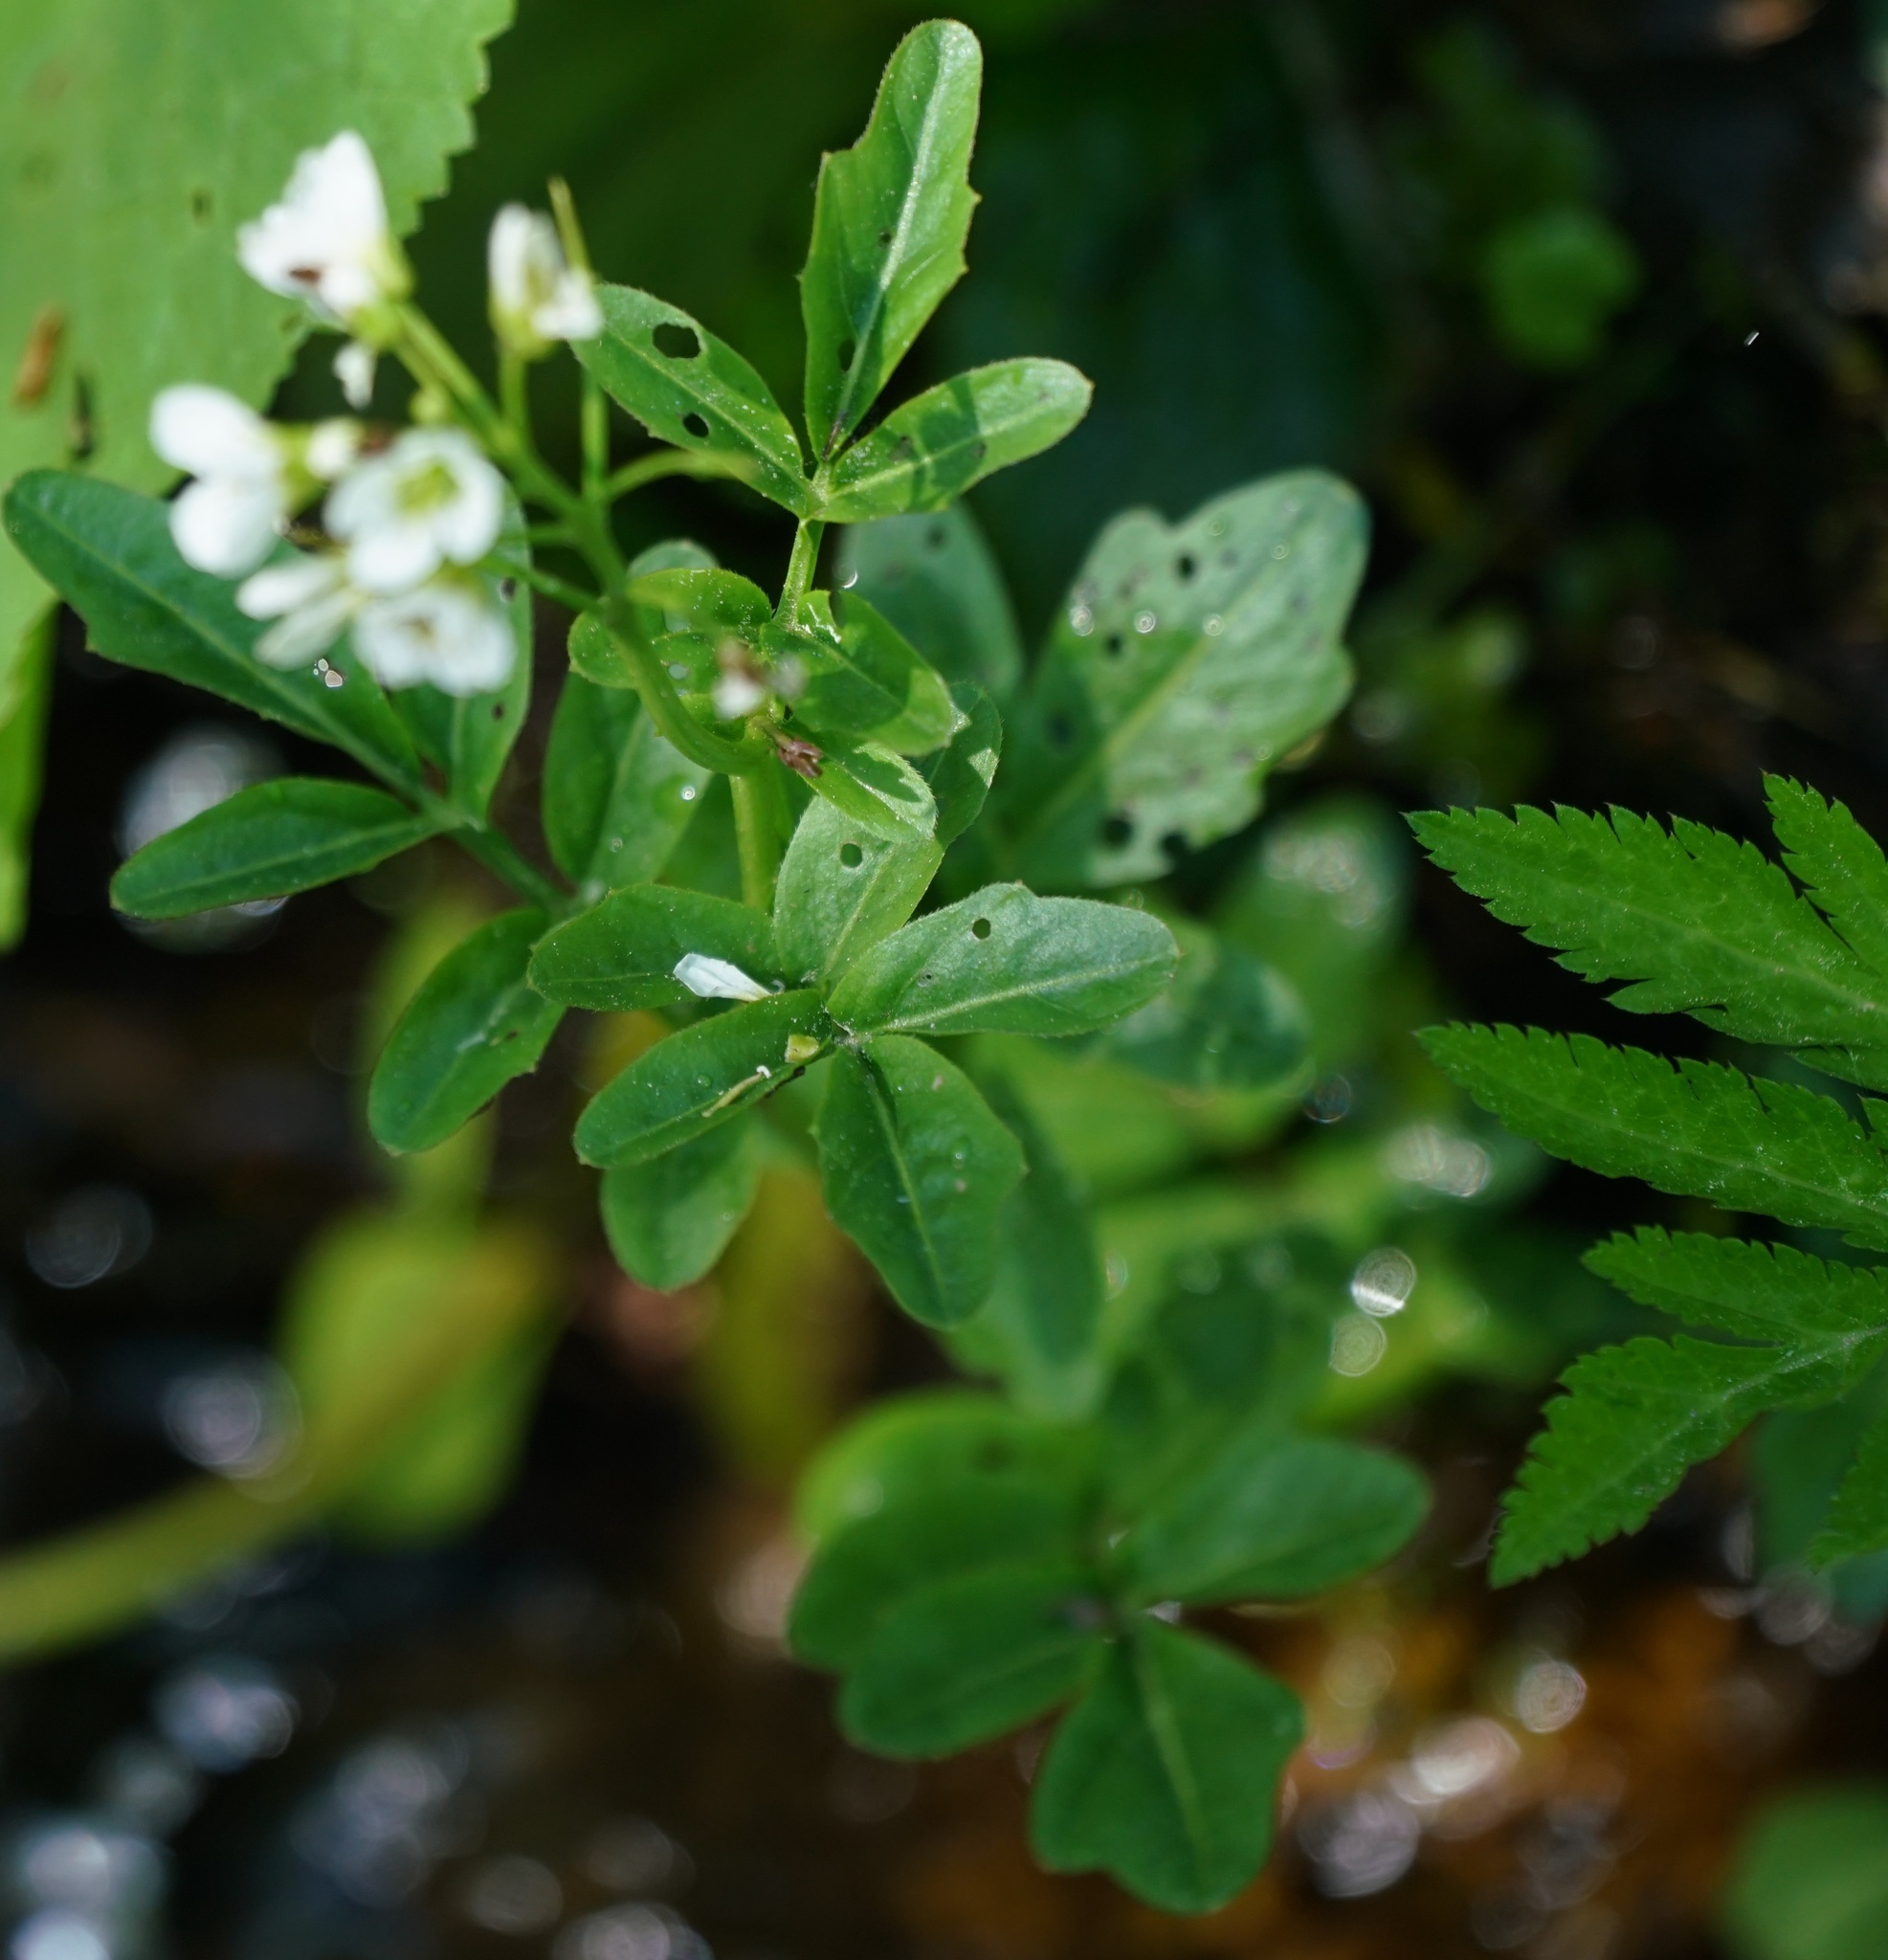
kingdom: Plantae
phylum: Tracheophyta
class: Magnoliopsida
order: Brassicales
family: Brassicaceae
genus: Cardamine
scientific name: Cardamine amara
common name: Large bitter-cress
